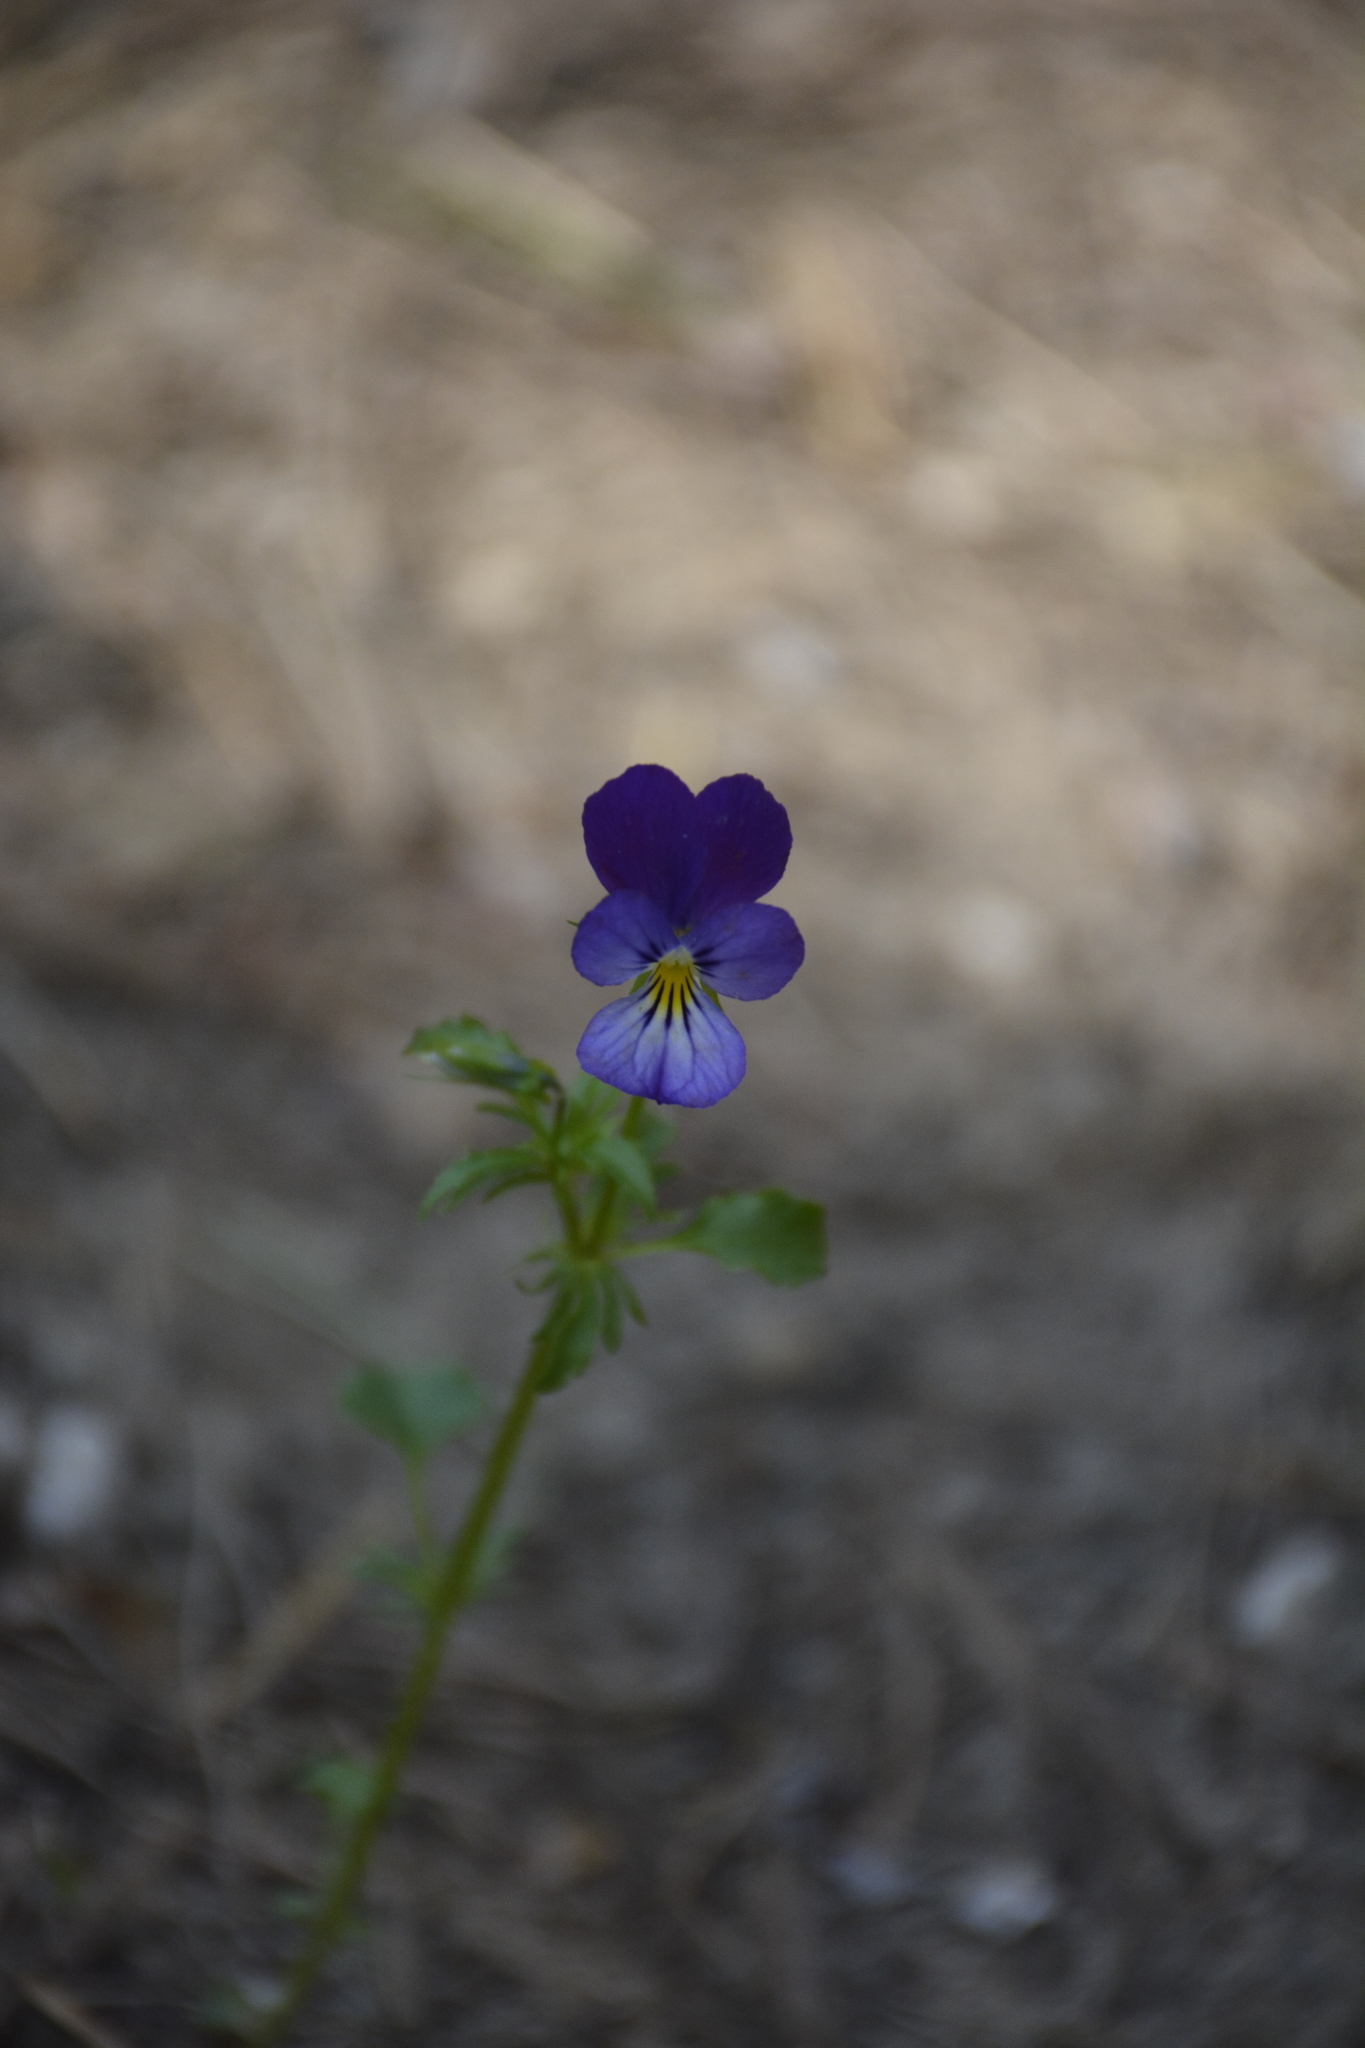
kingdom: Plantae
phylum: Tracheophyta
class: Magnoliopsida
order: Malpighiales
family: Violaceae
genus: Viola
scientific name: Viola tricolor
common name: Pansy
